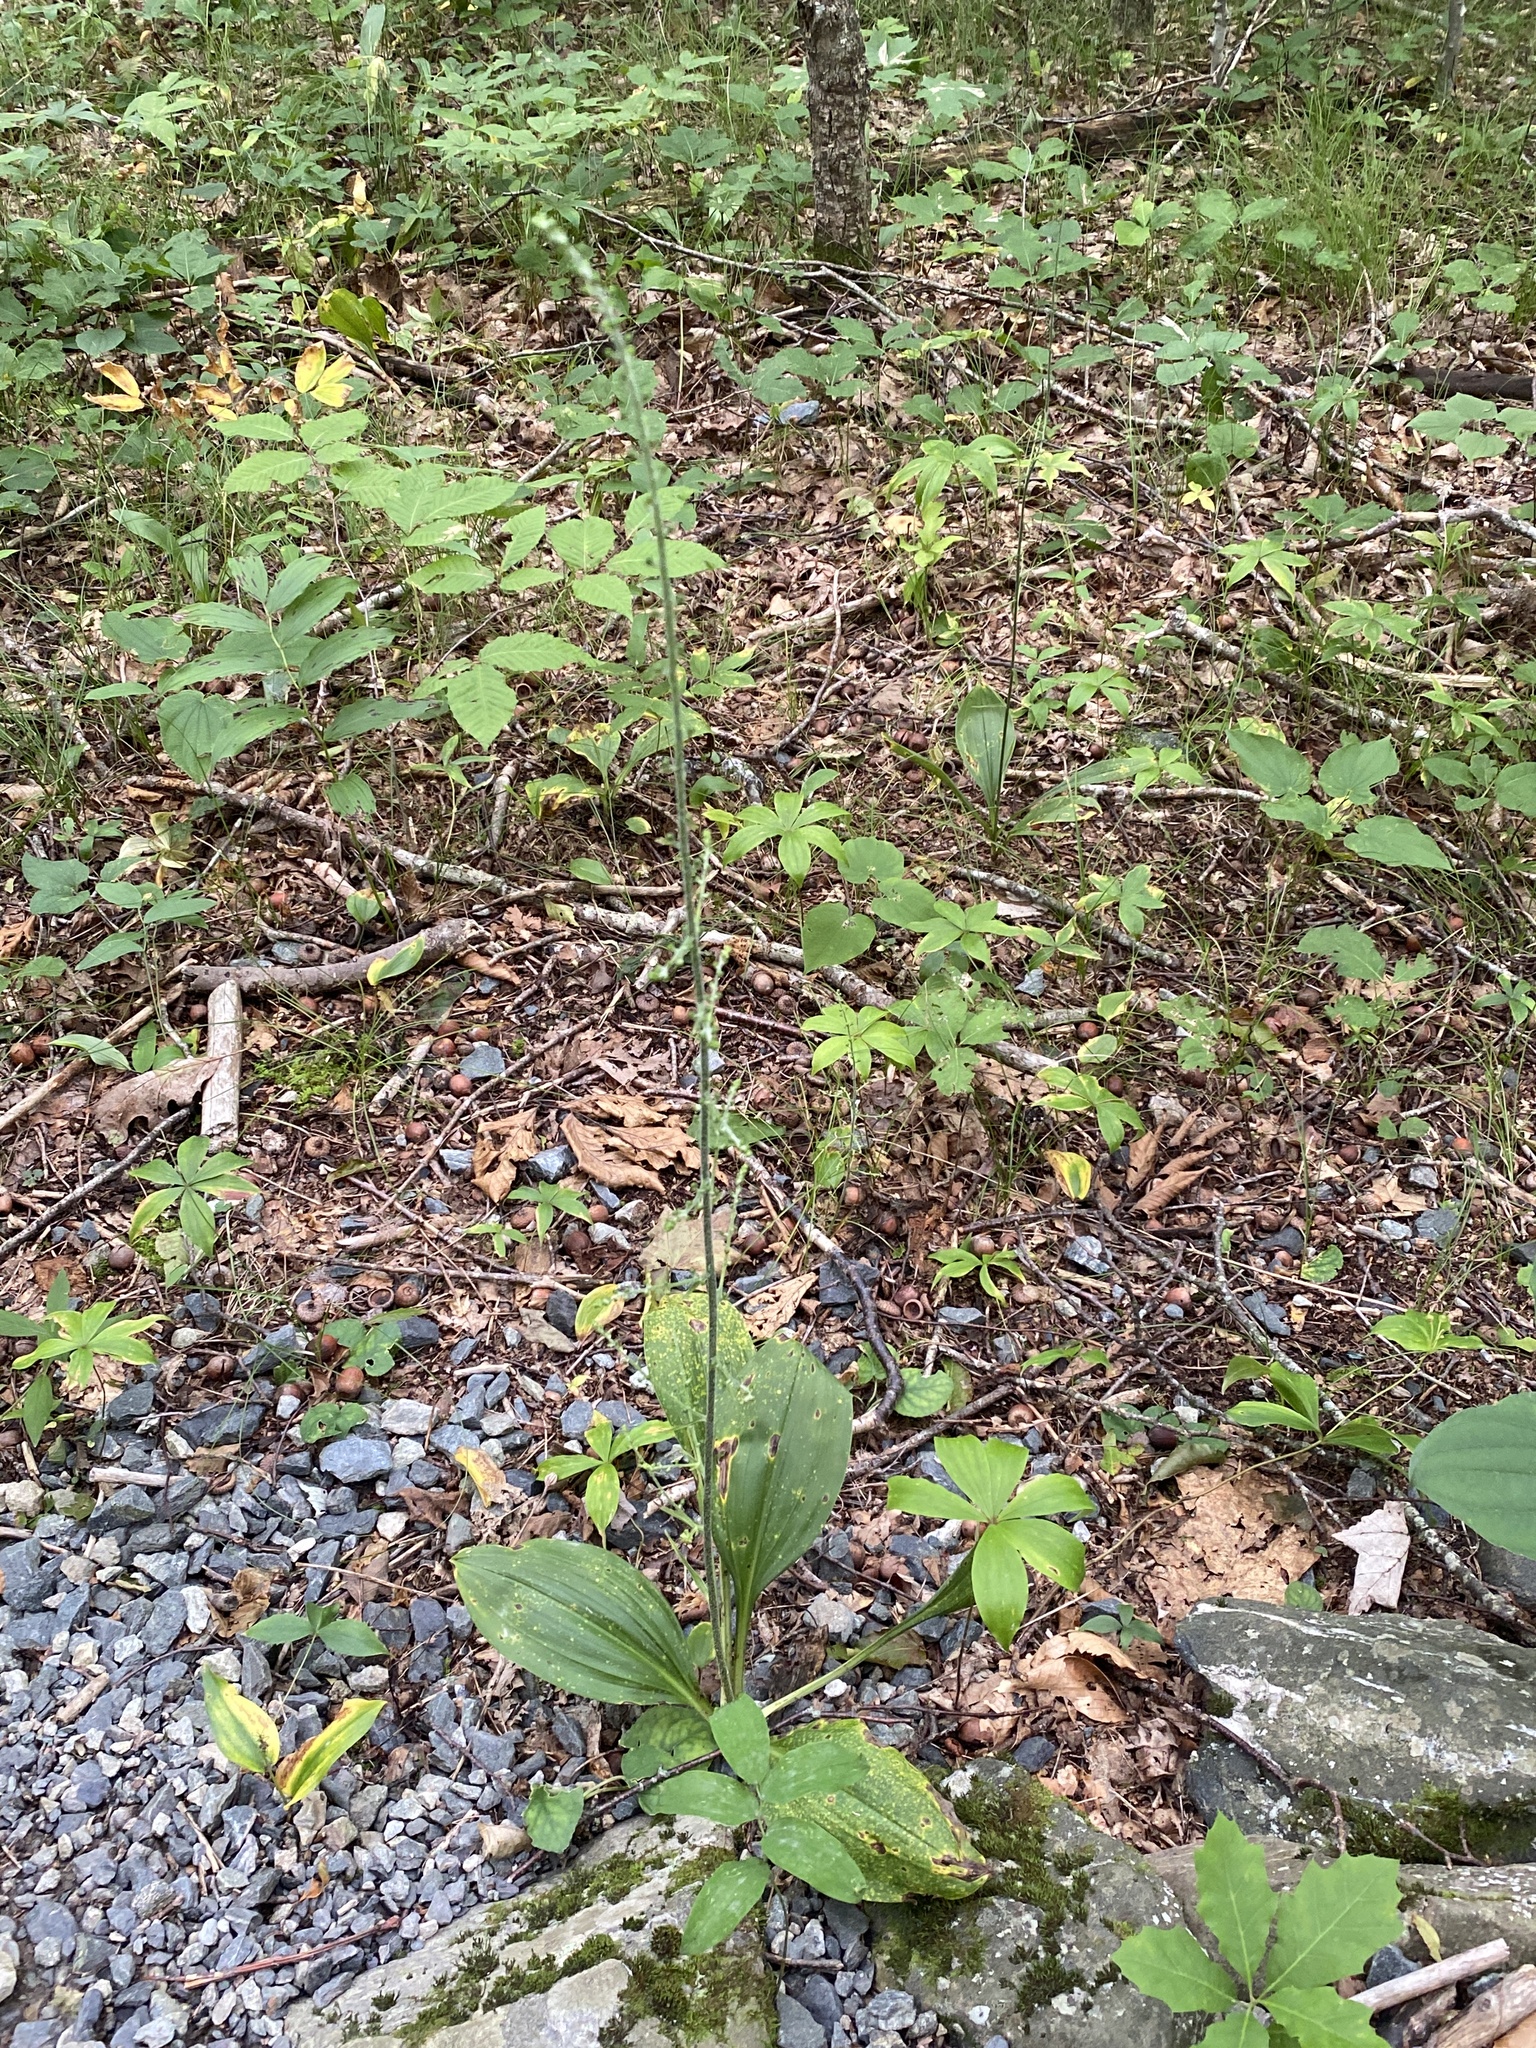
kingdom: Plantae
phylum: Tracheophyta
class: Liliopsida
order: Liliales
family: Melanthiaceae
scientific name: Melanthiaceae
